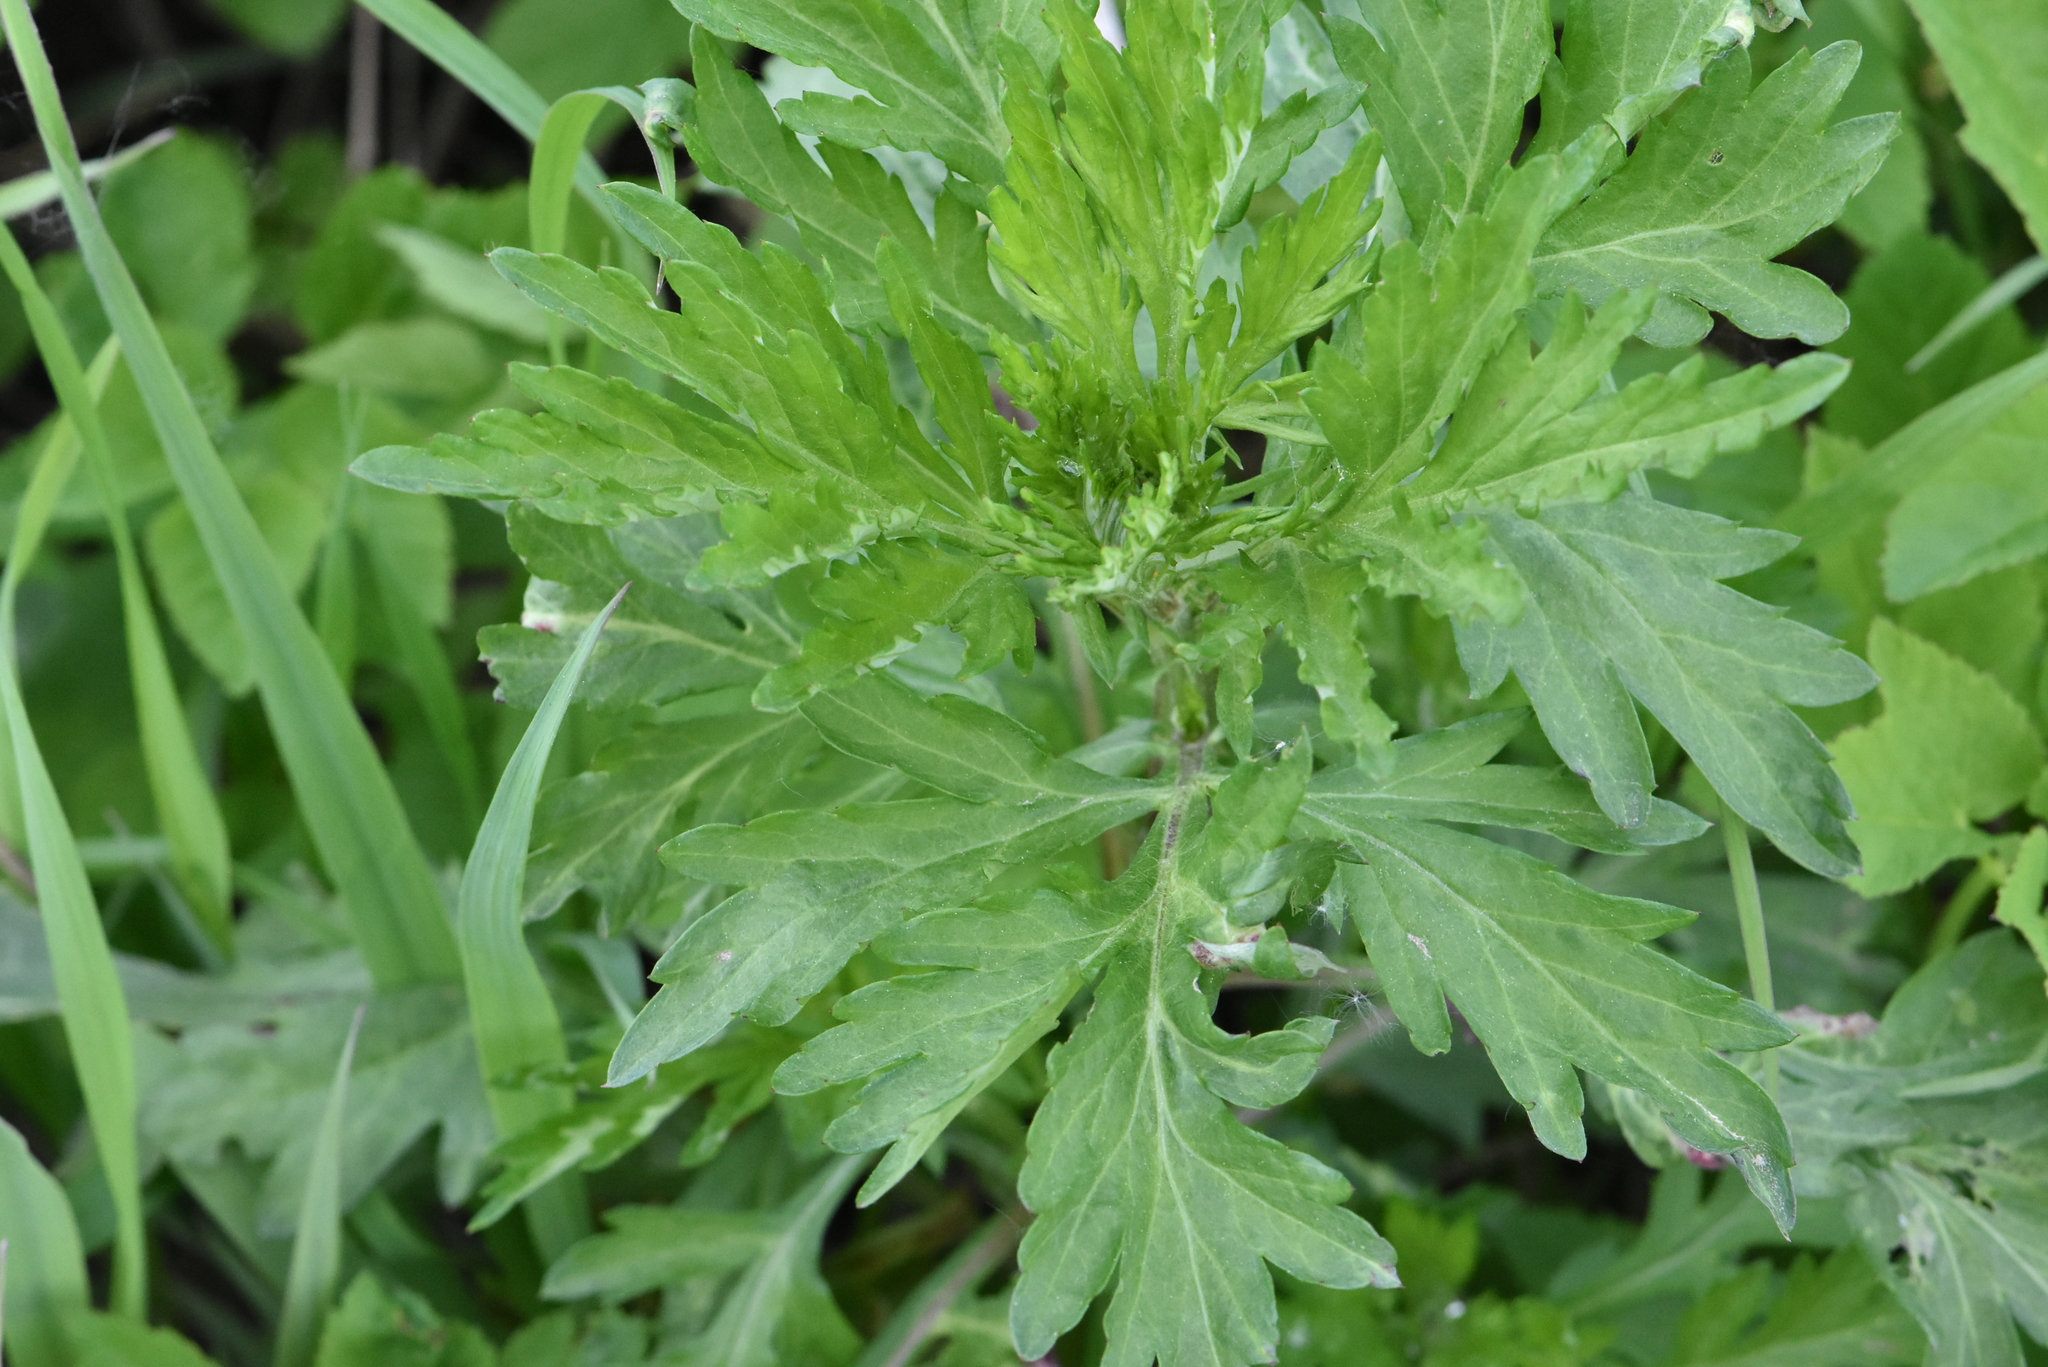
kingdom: Plantae
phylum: Tracheophyta
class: Magnoliopsida
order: Asterales
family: Asteraceae
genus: Artemisia
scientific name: Artemisia vulgaris
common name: Mugwort
